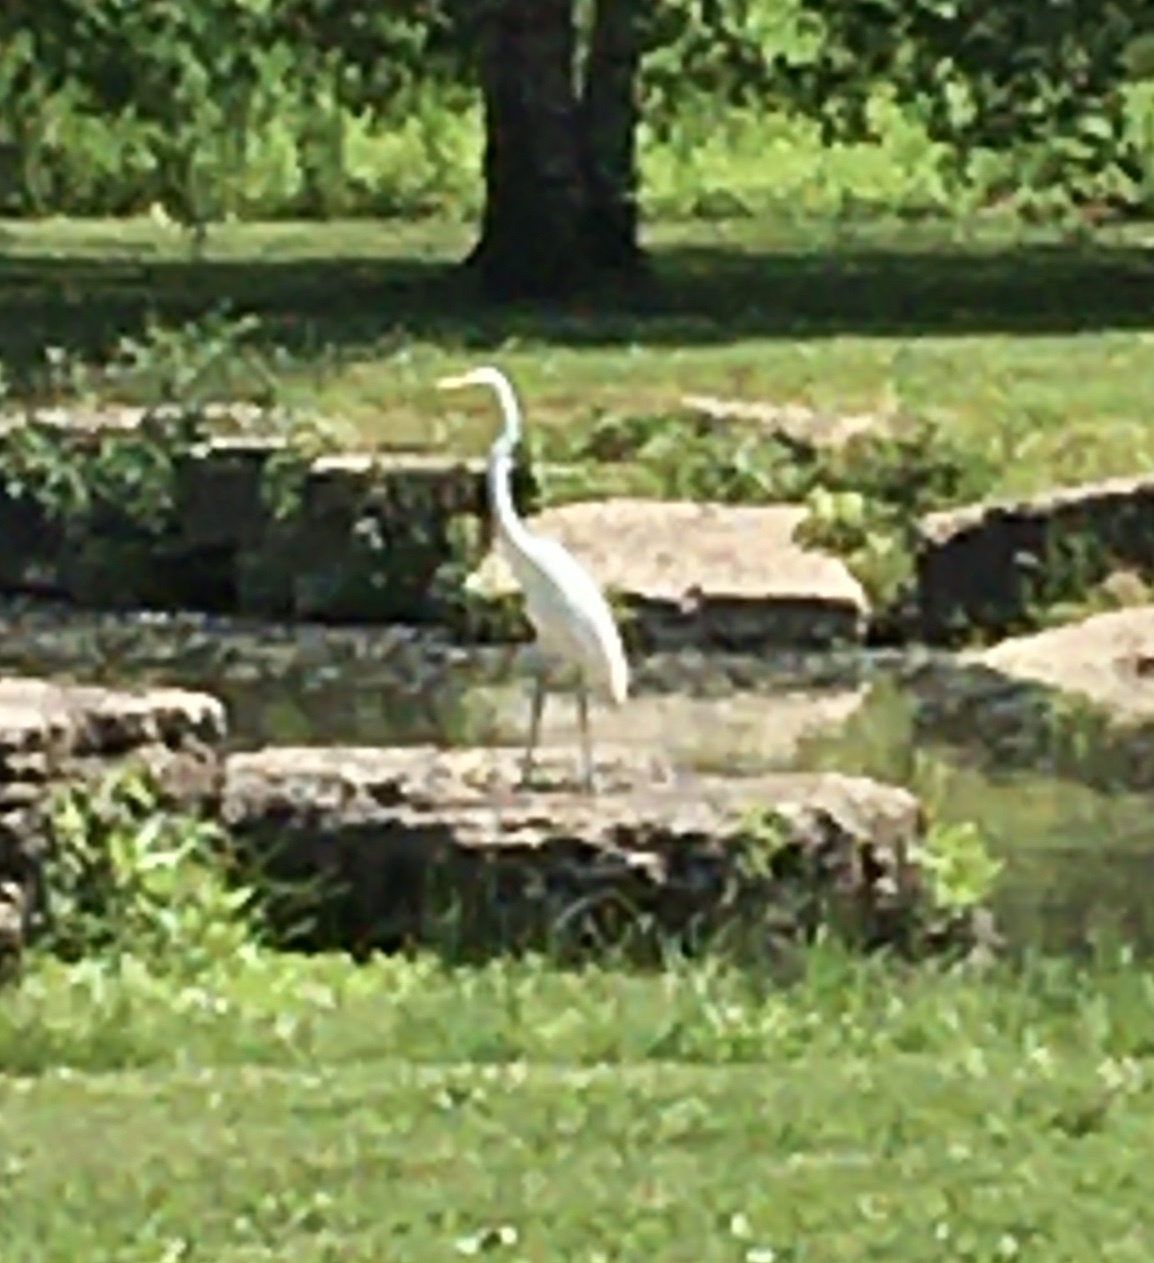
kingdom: Animalia
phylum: Chordata
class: Aves
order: Pelecaniformes
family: Ardeidae
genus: Ardea
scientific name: Ardea alba
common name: Great egret
